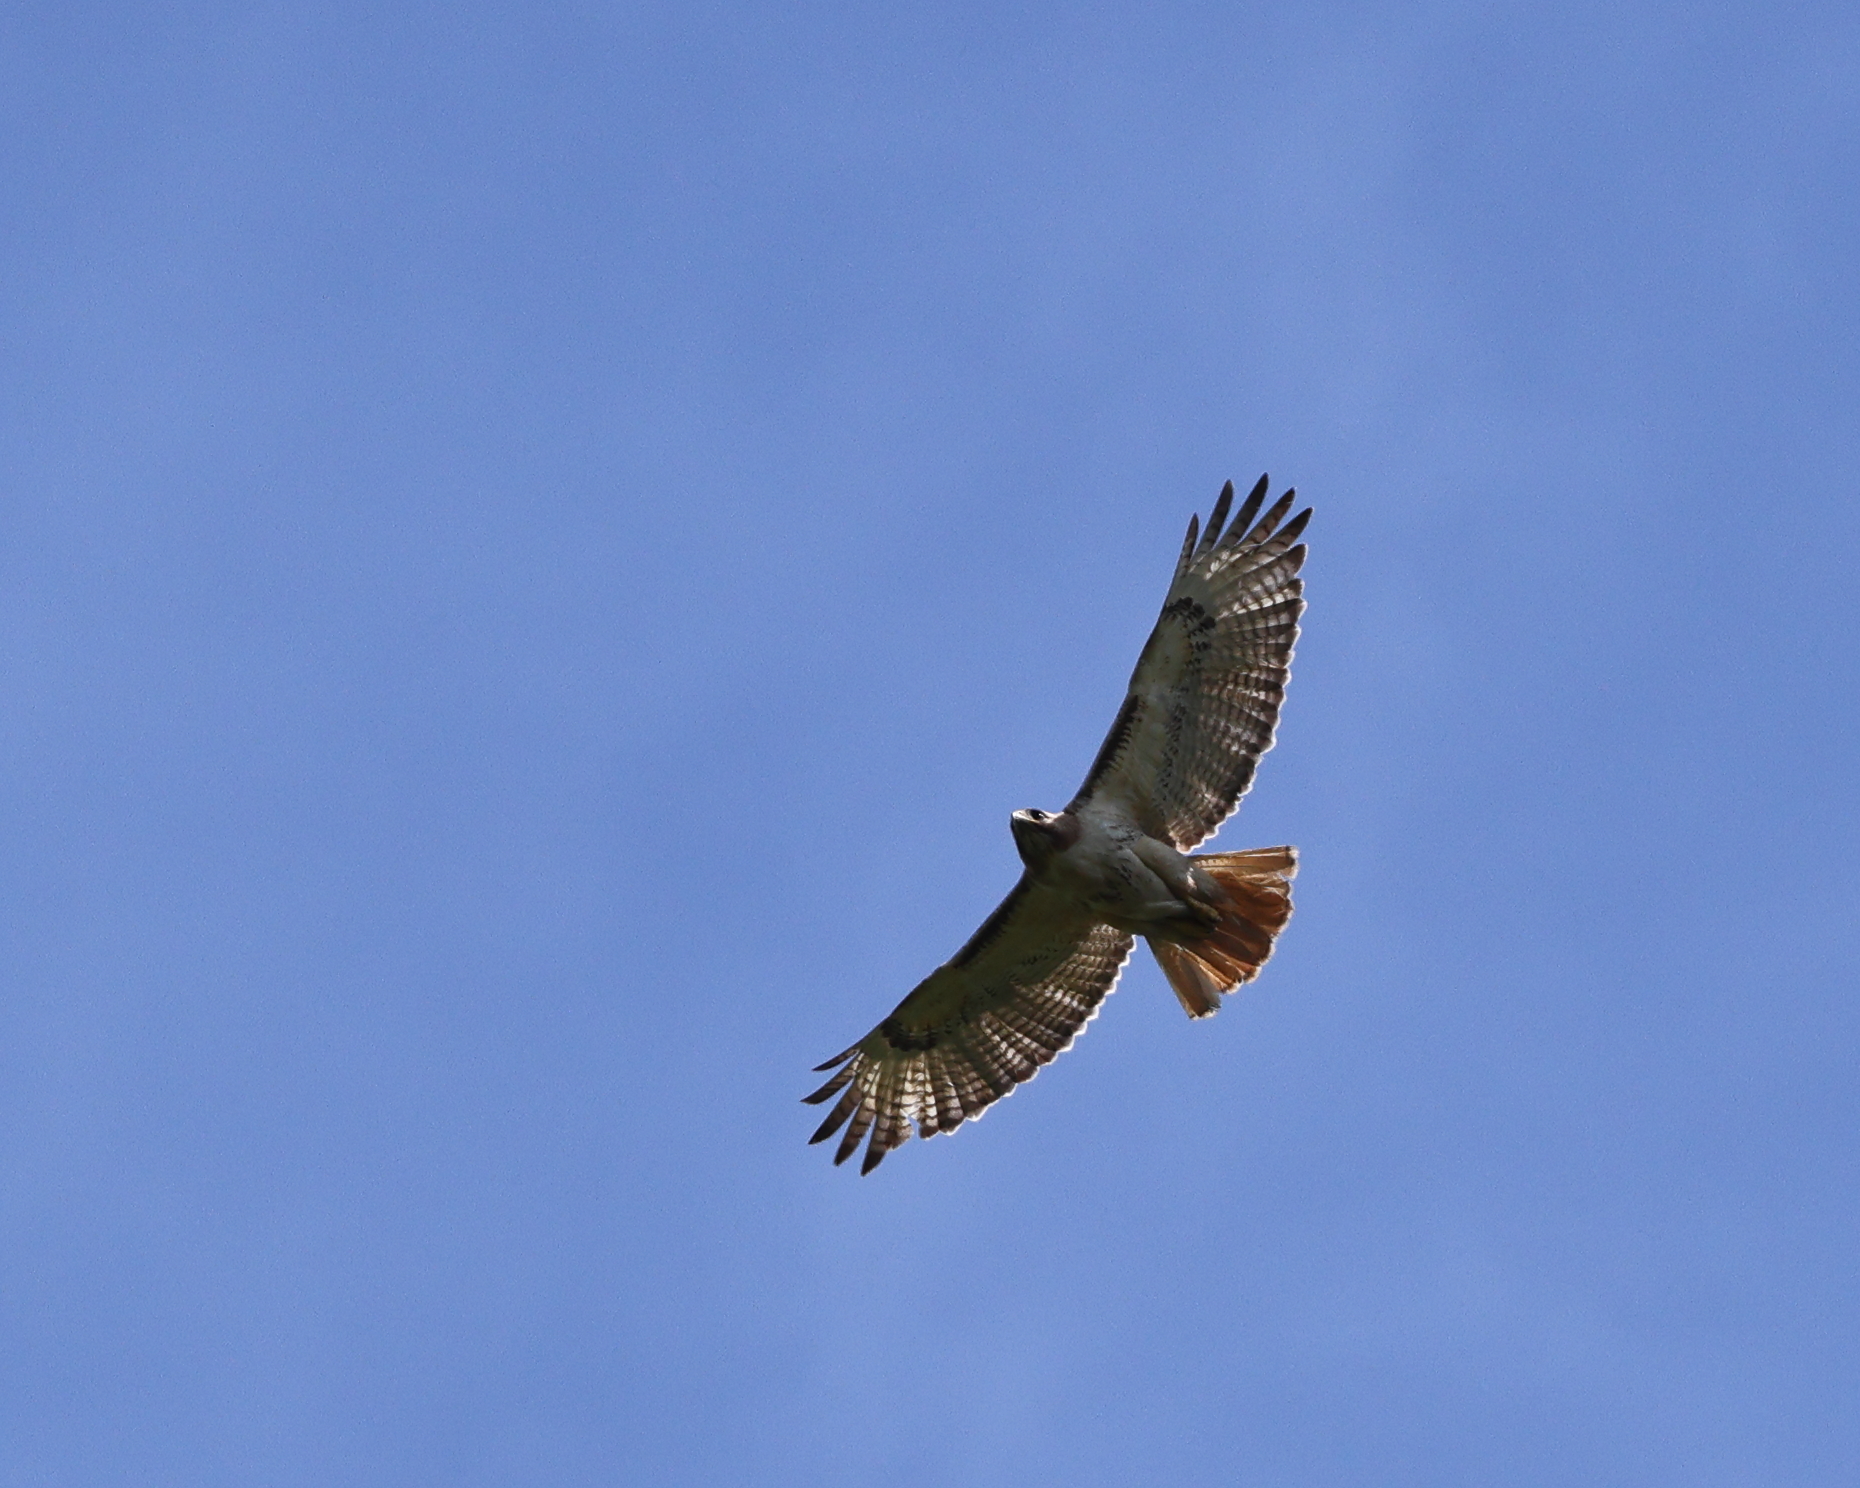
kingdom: Animalia
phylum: Chordata
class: Aves
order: Accipitriformes
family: Accipitridae
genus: Buteo
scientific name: Buteo jamaicensis
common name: Red-tailed hawk
